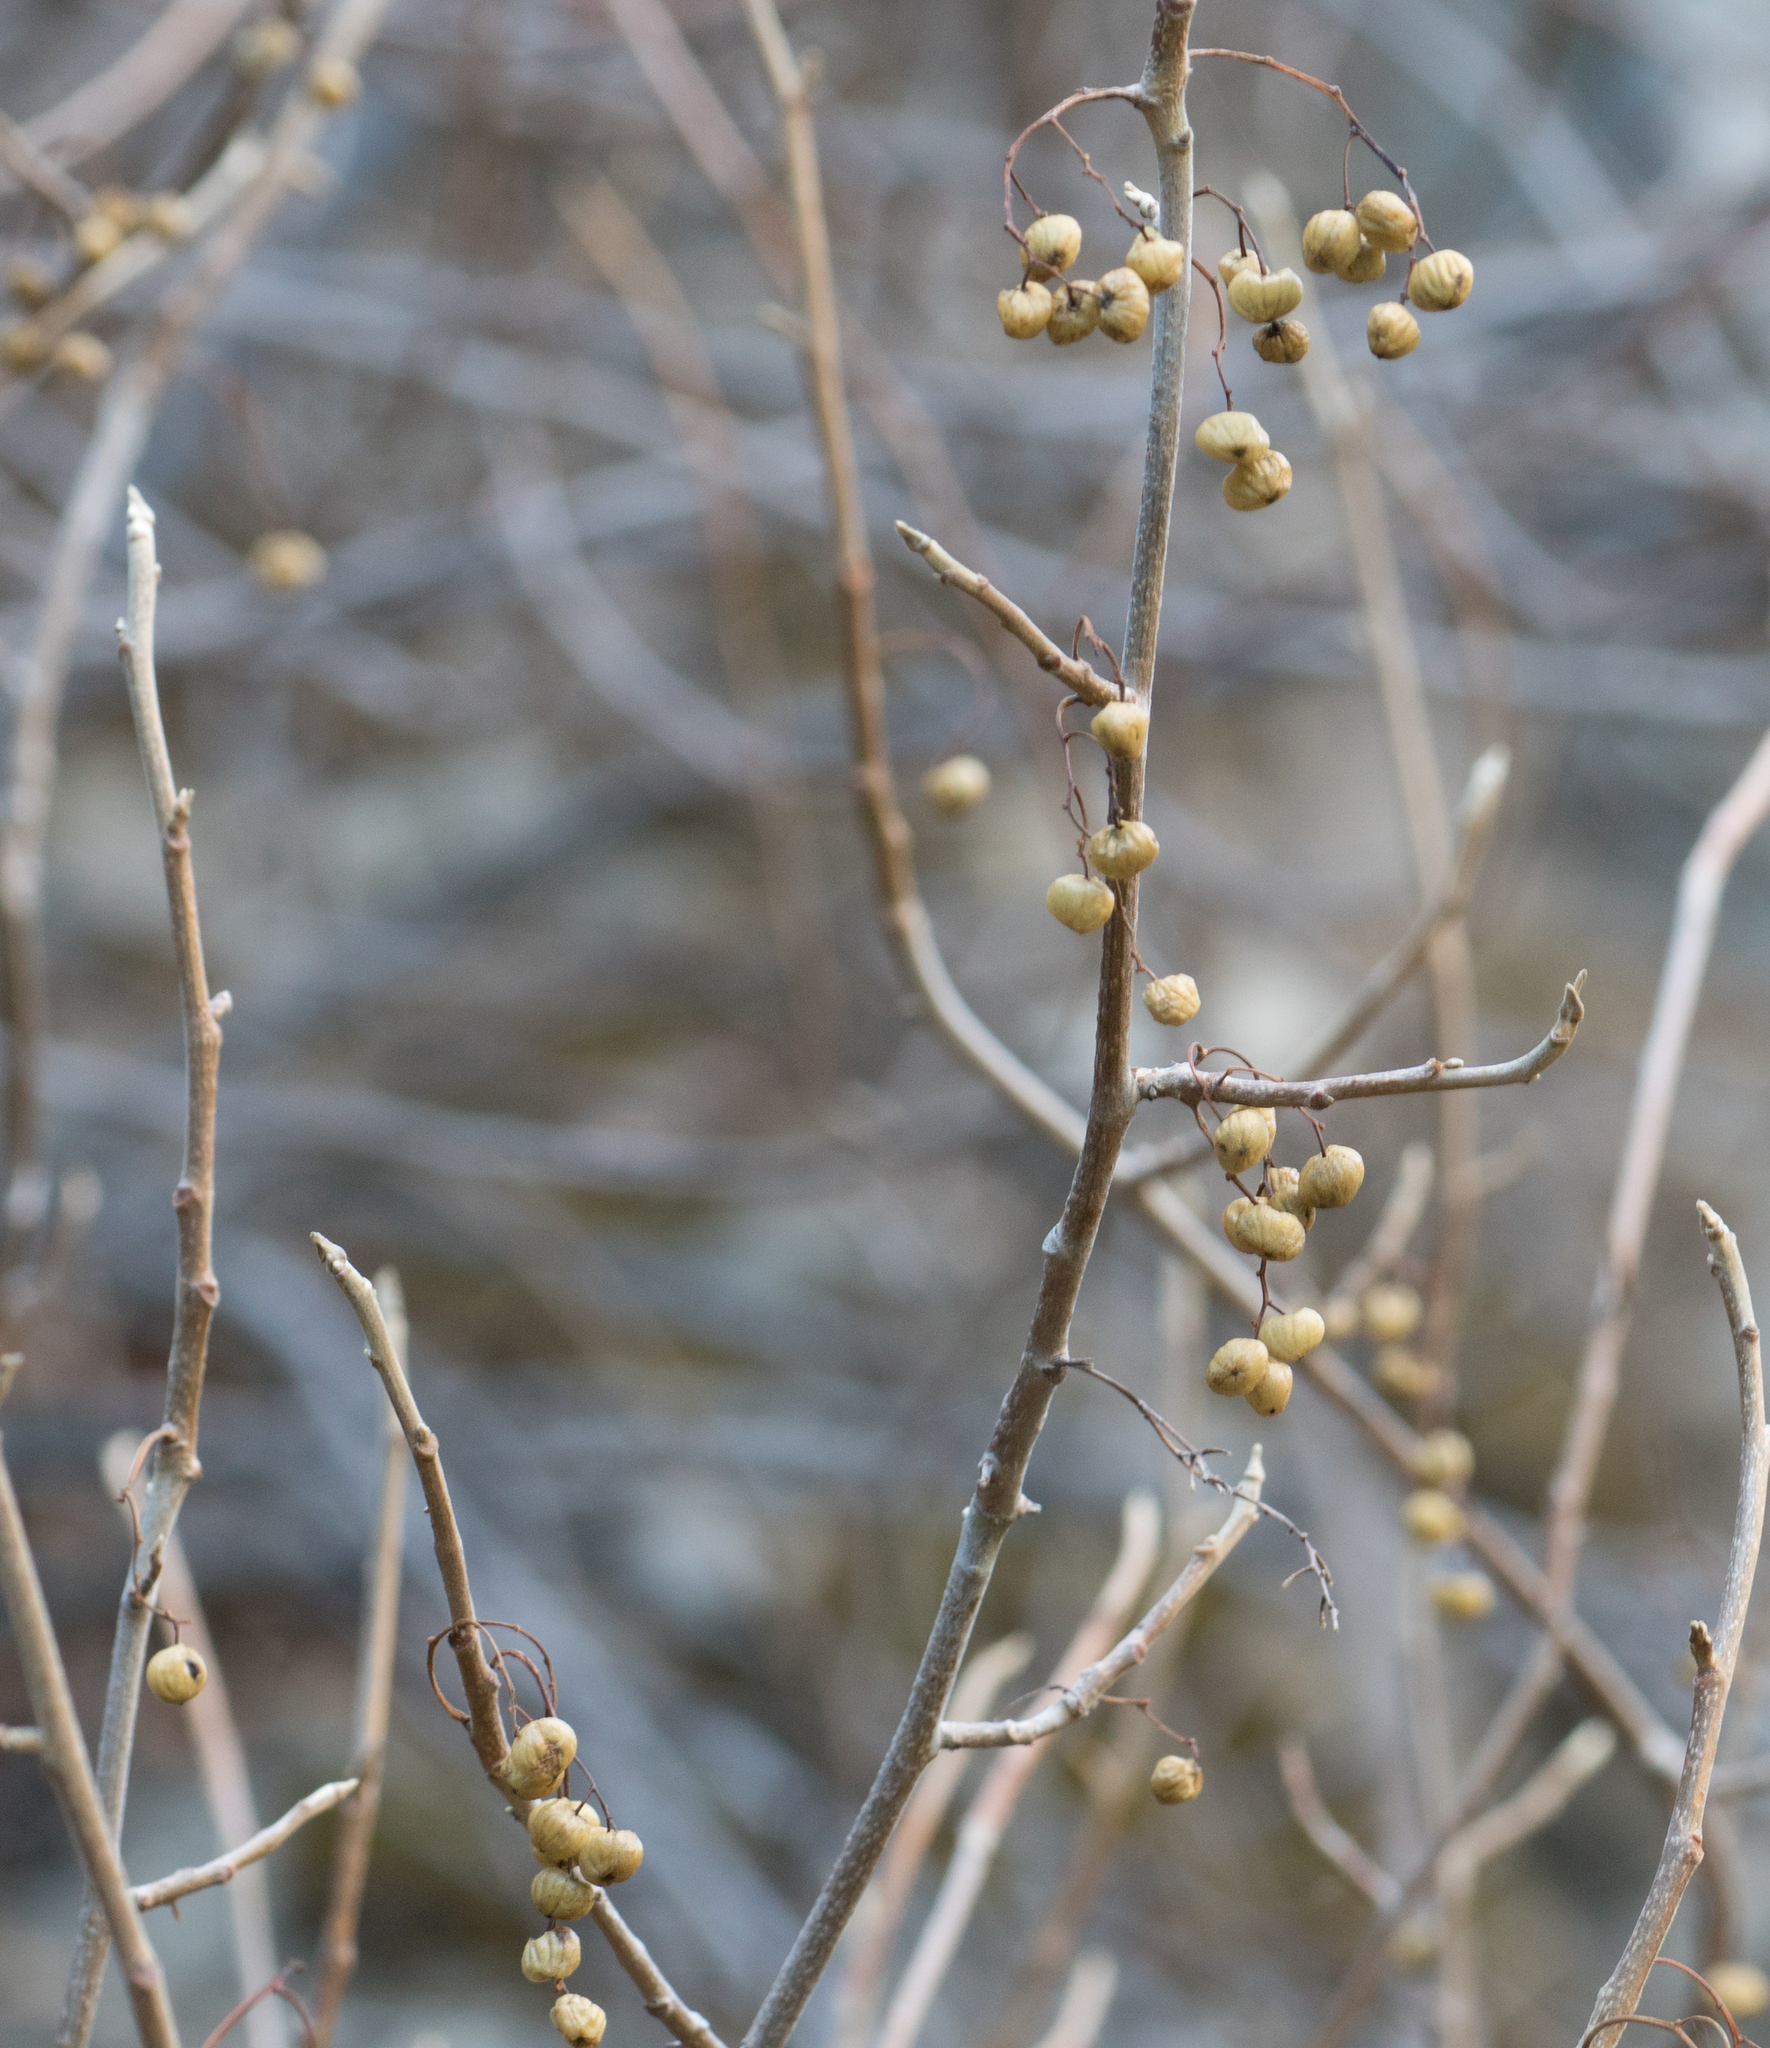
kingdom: Plantae
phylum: Tracheophyta
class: Magnoliopsida
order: Sapindales
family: Anacardiaceae
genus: Toxicodendron
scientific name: Toxicodendron diversilobum
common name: Pacific poison-oak
